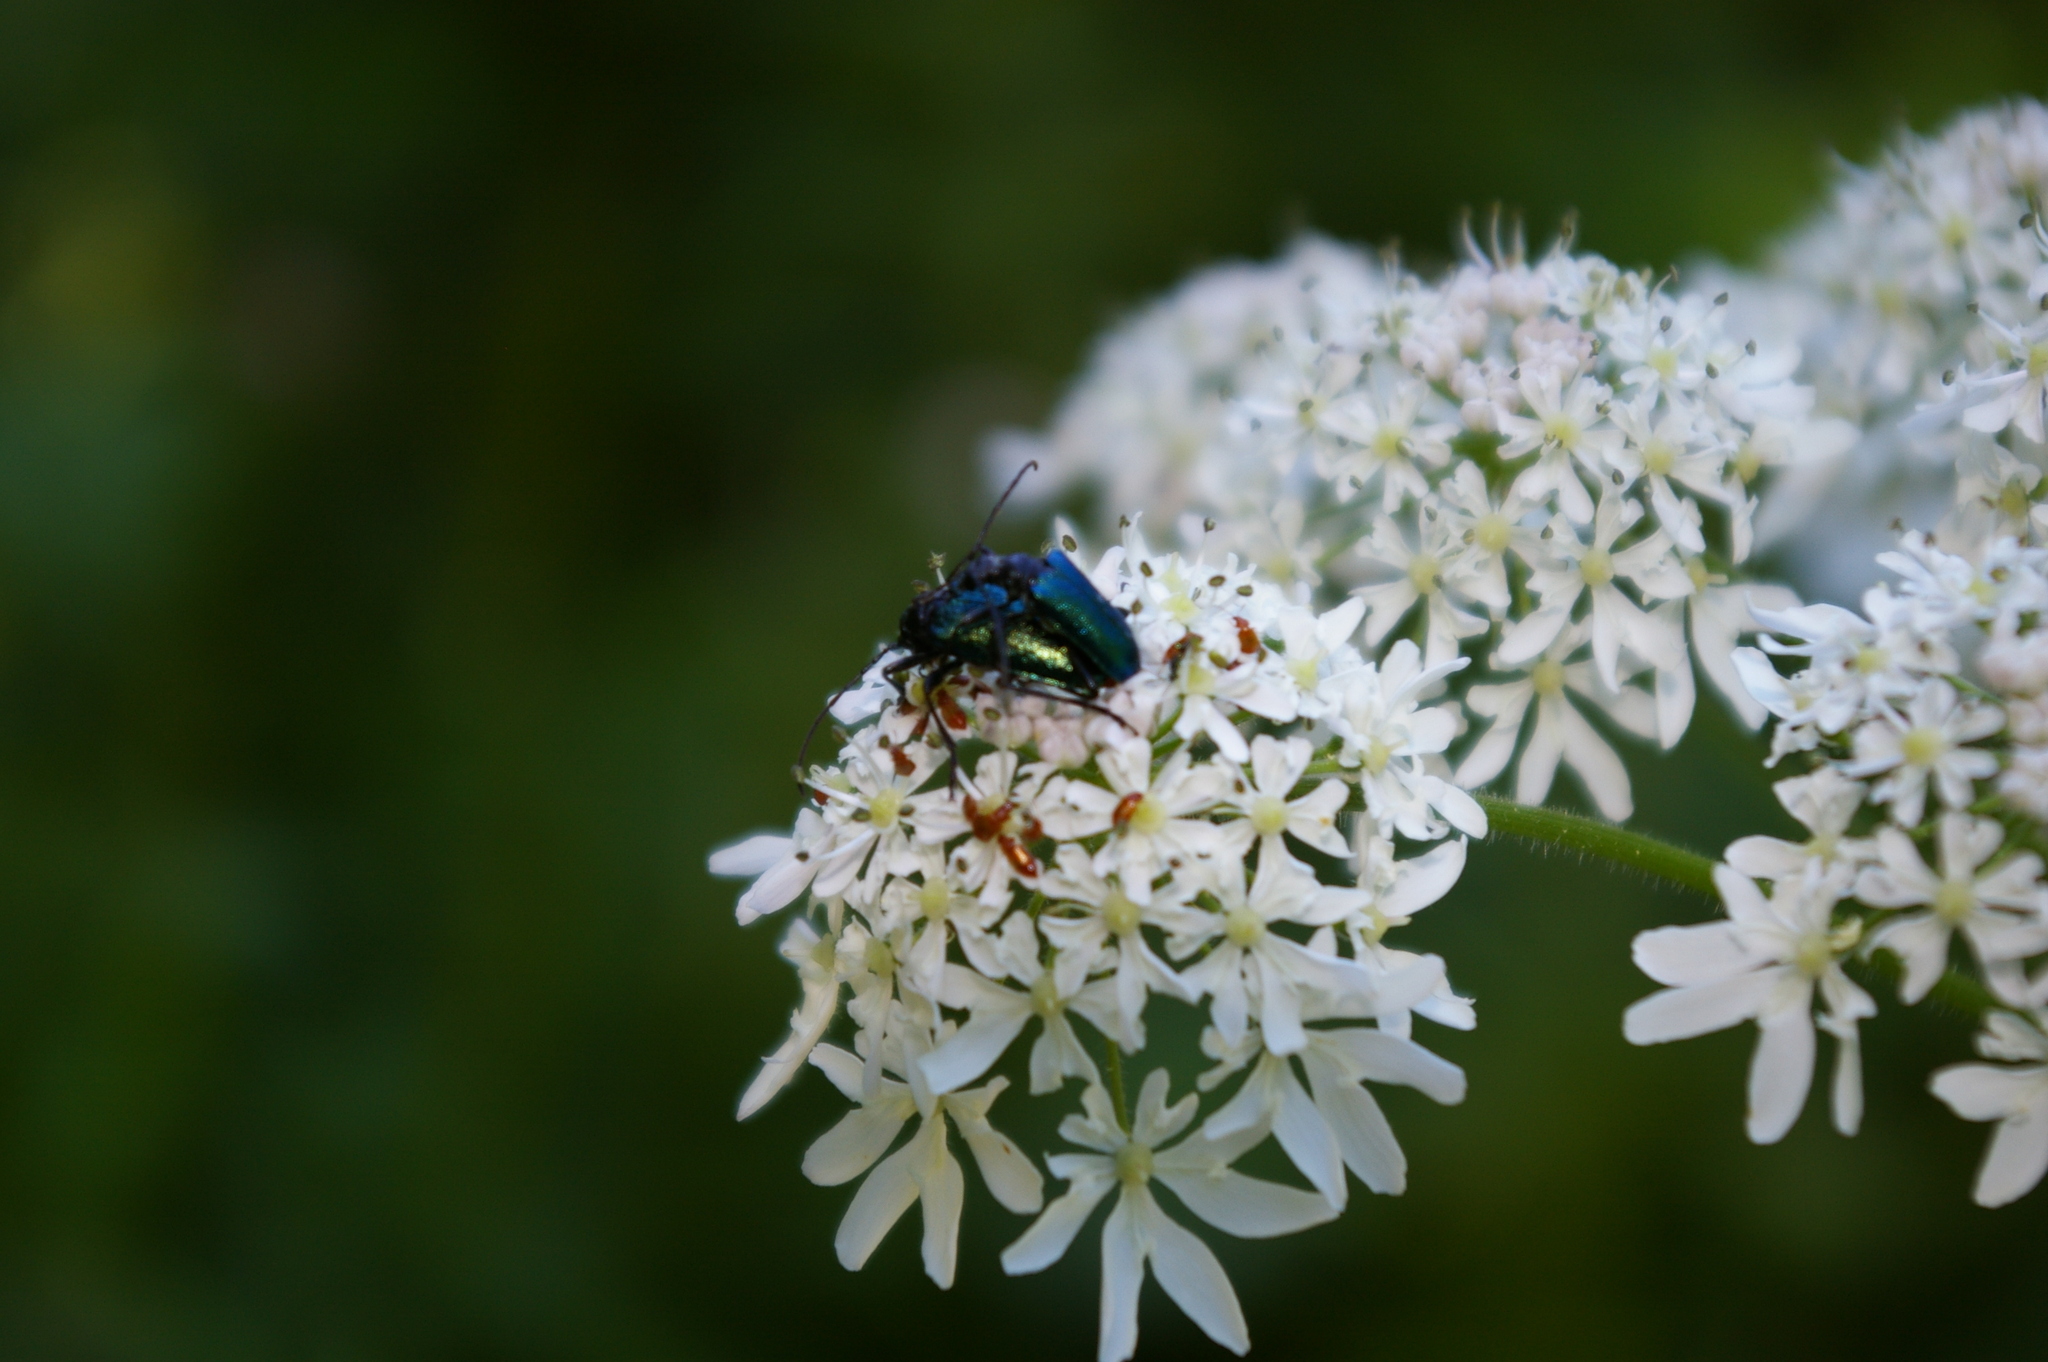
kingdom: Animalia
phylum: Arthropoda
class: Insecta
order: Coleoptera
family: Cerambycidae
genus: Gaurotes
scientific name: Gaurotes virginea
